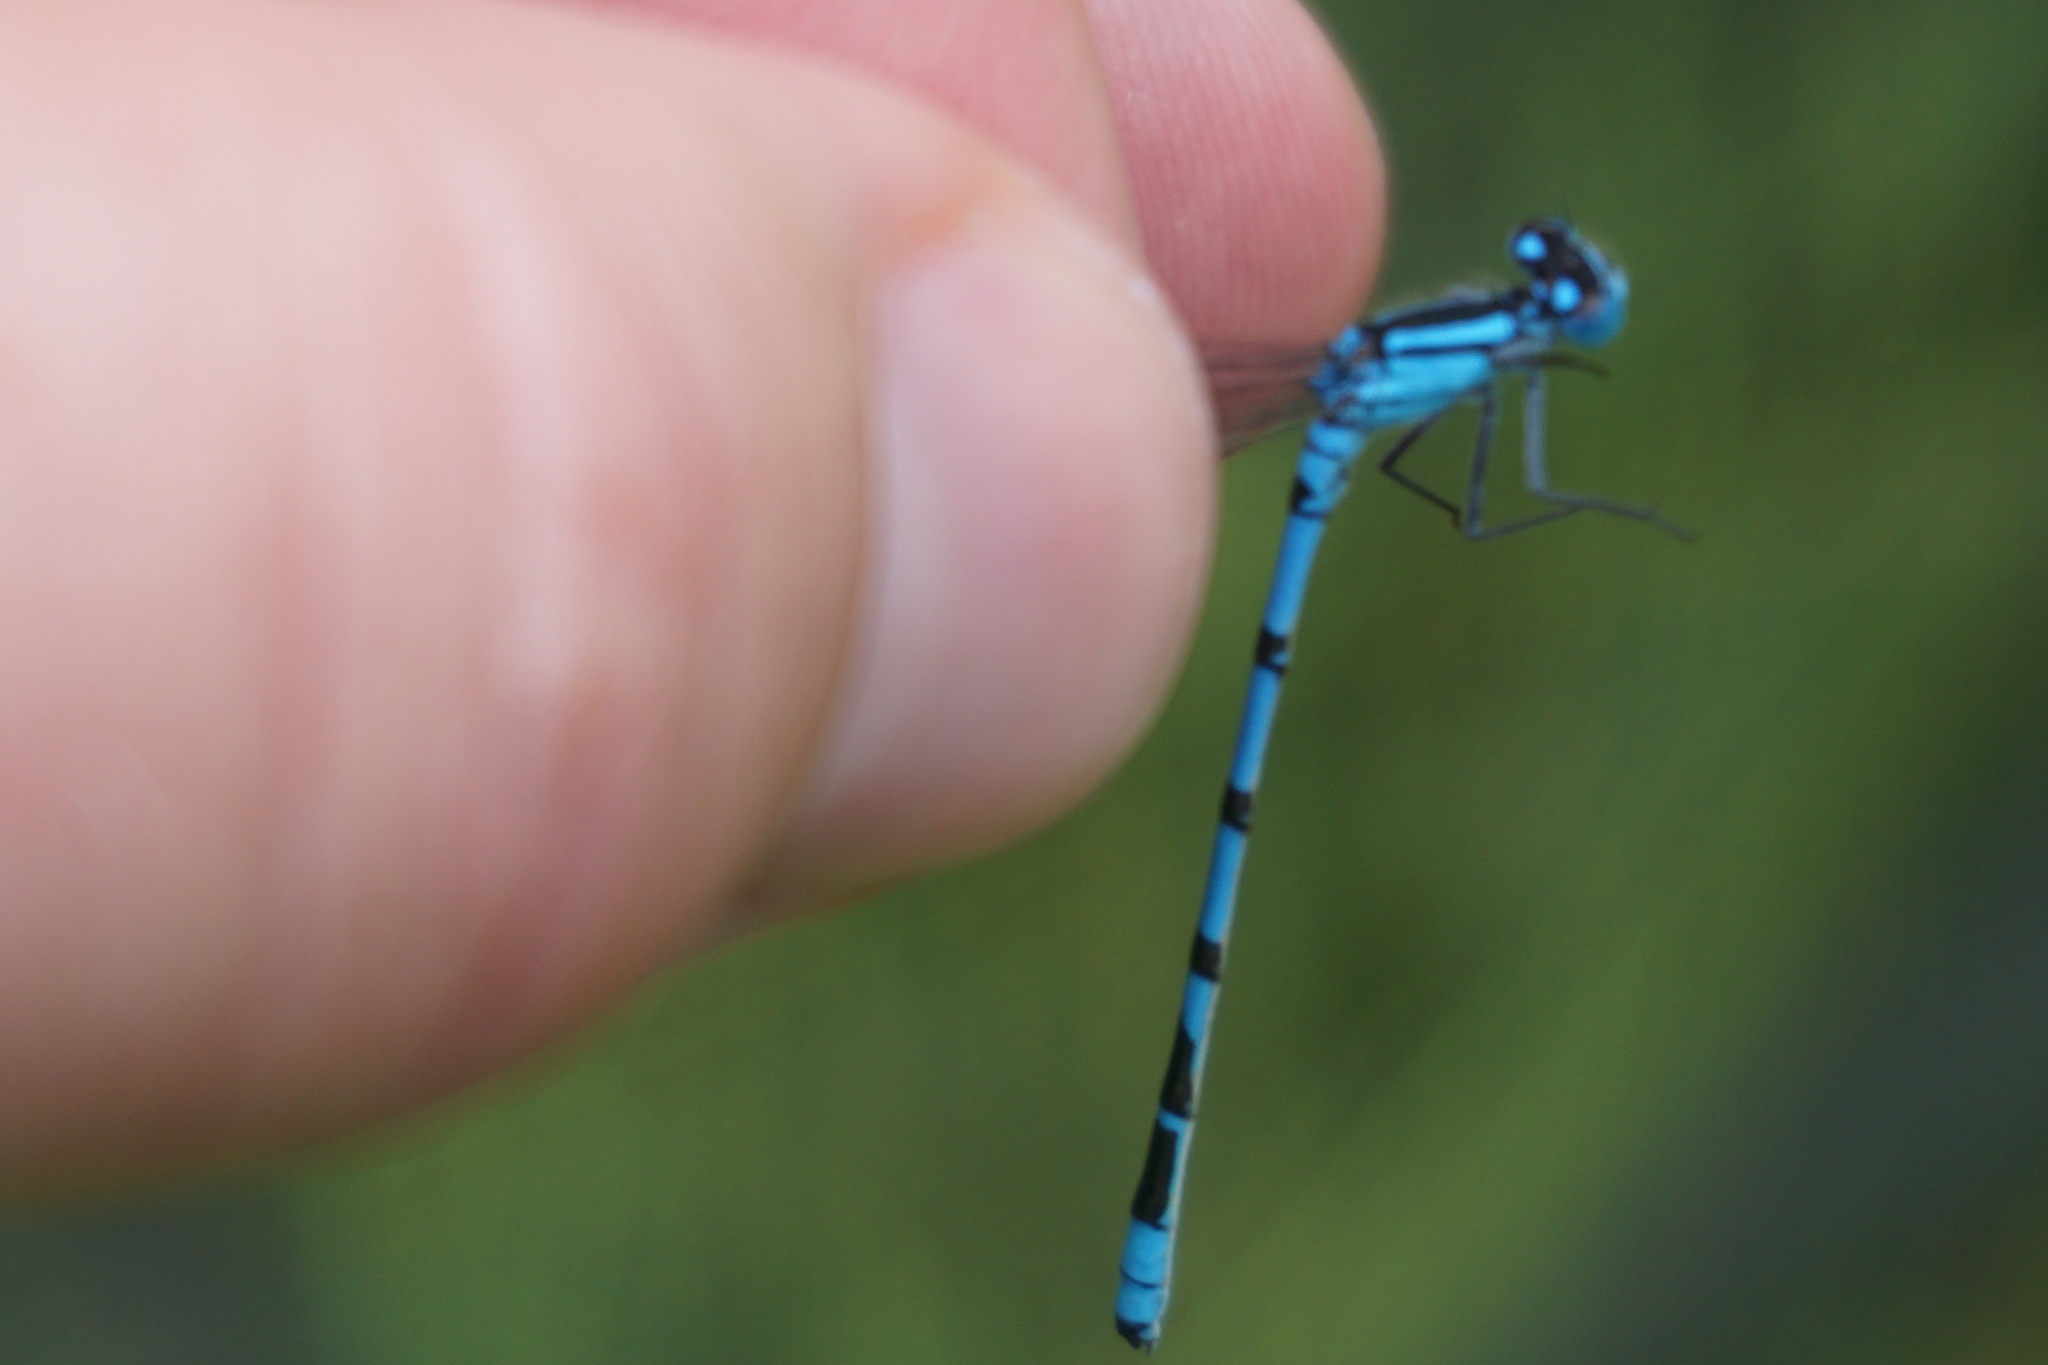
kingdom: Animalia
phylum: Arthropoda
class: Insecta
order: Odonata
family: Coenagrionidae
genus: Enallagma
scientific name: Enallagma cyathigerum
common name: Common blue damselfly
